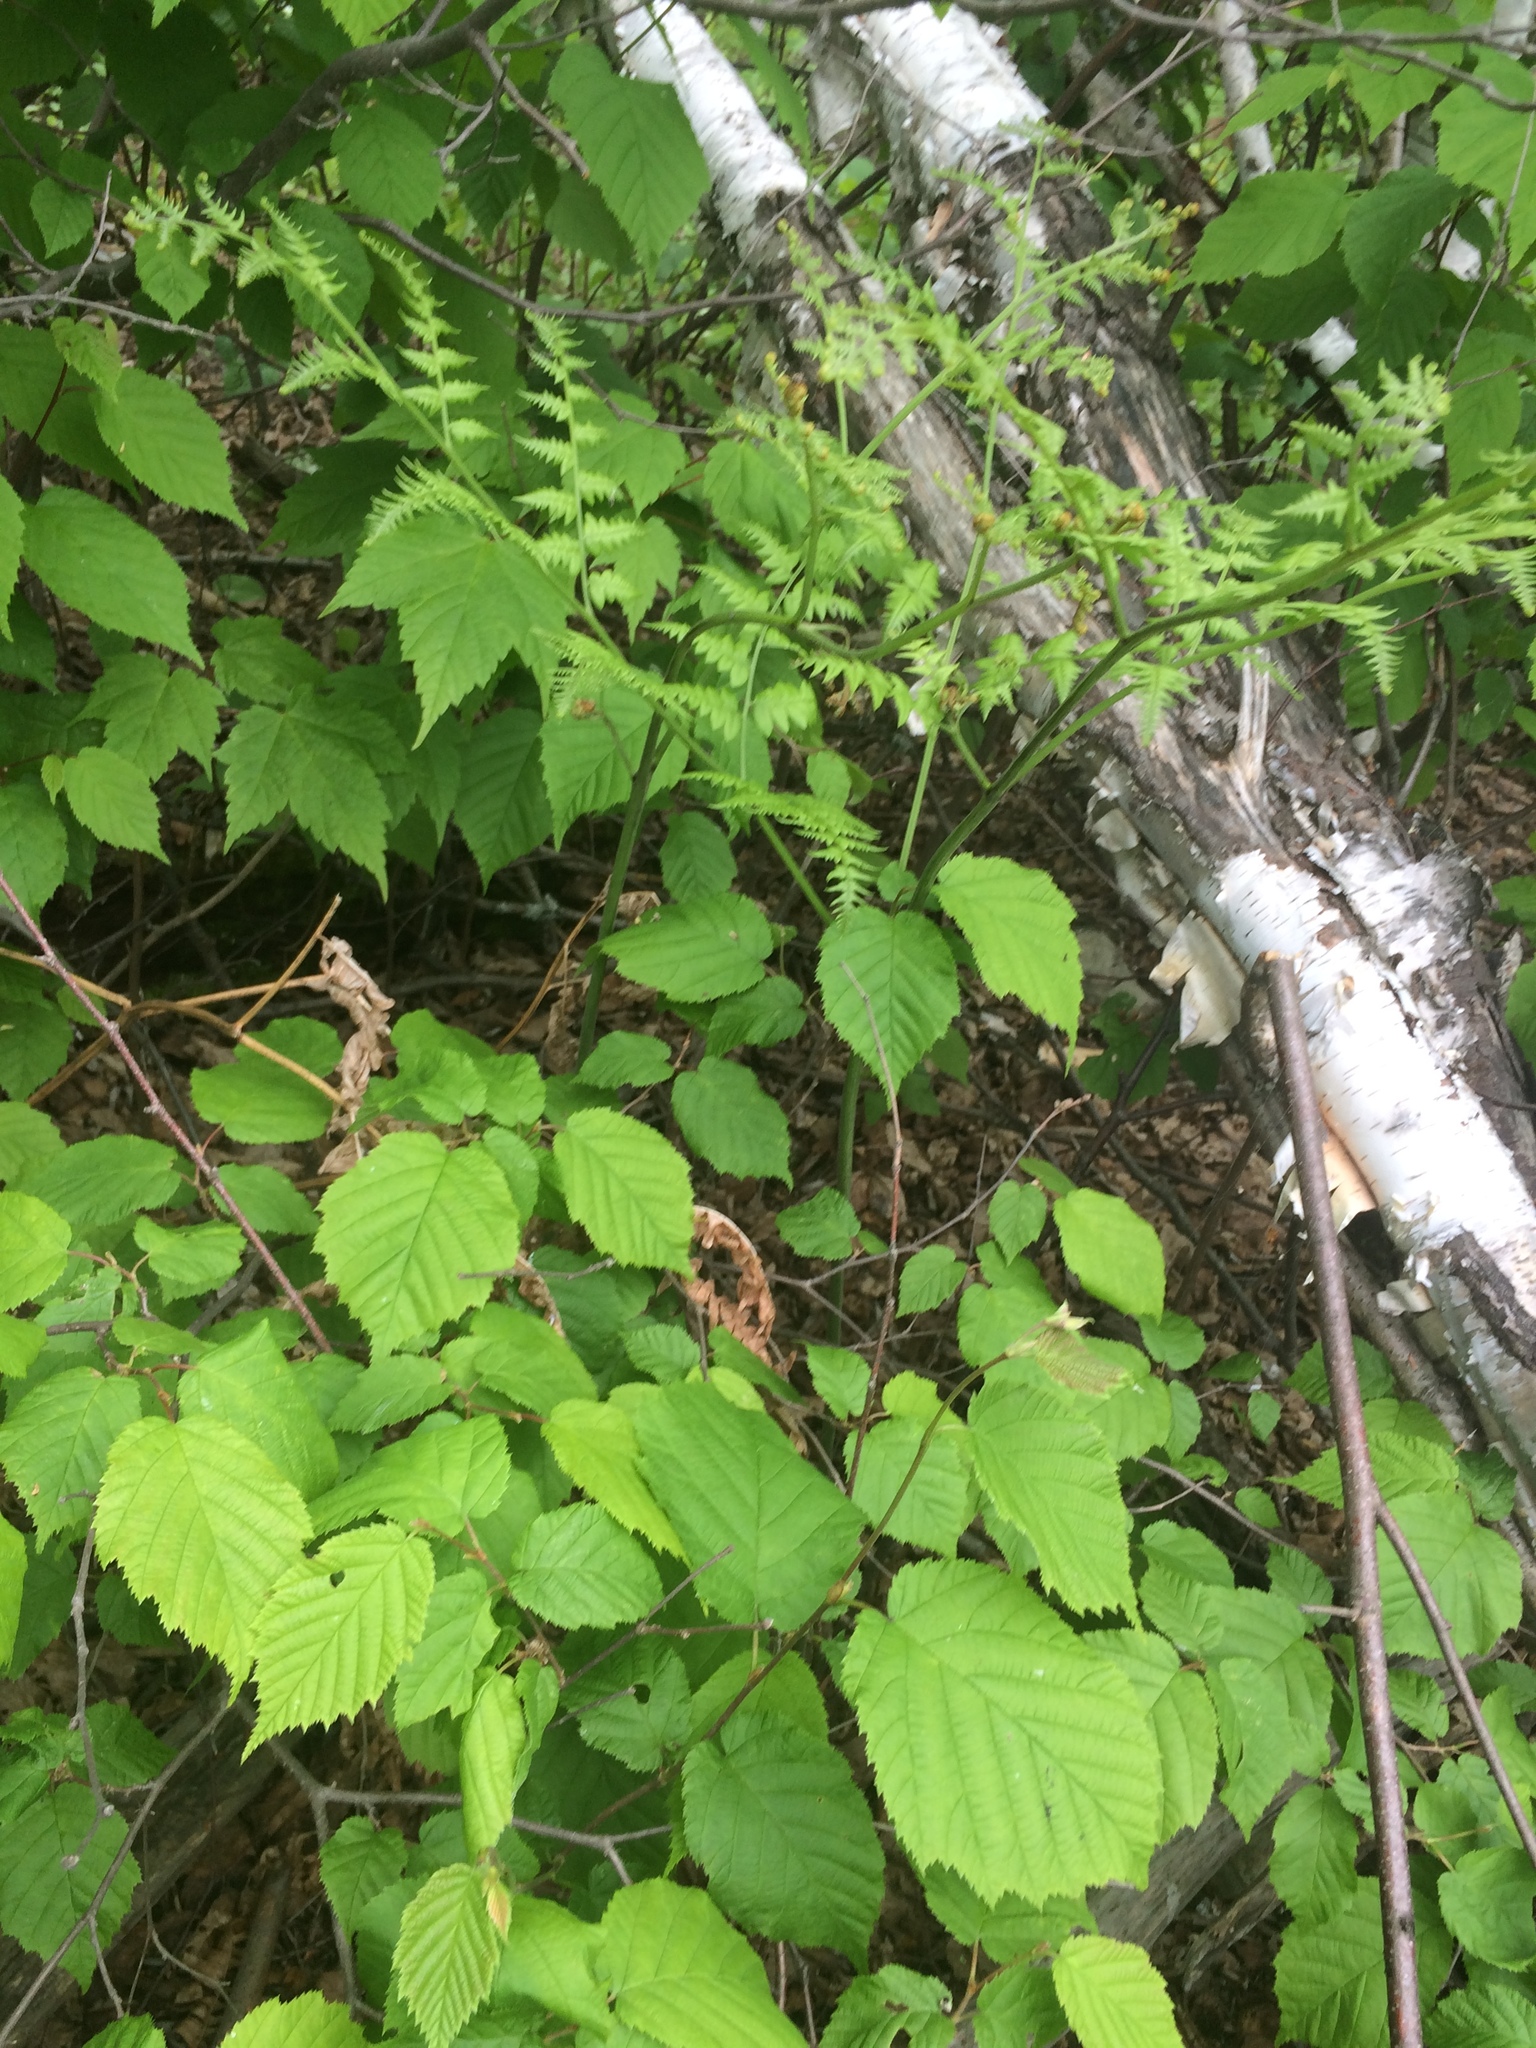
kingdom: Plantae
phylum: Tracheophyta
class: Polypodiopsida
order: Polypodiales
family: Dennstaedtiaceae
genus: Pteridium
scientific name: Pteridium aquilinum
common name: Bracken
